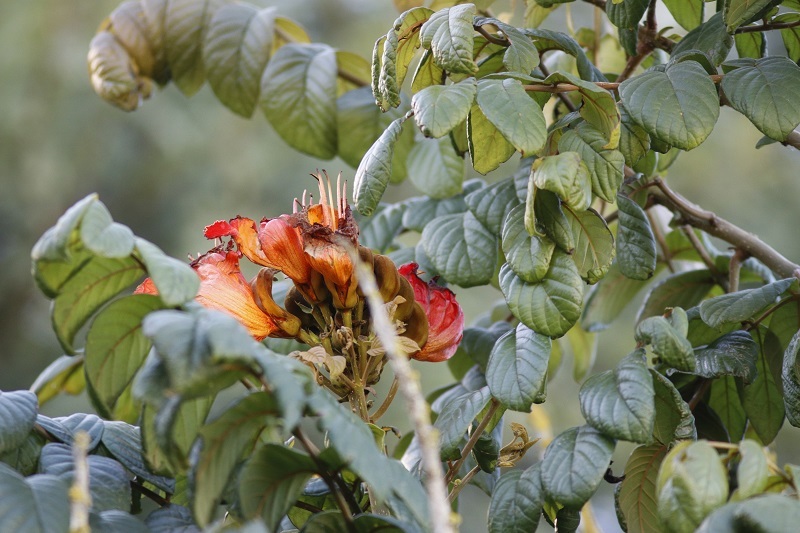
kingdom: Plantae
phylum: Tracheophyta
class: Magnoliopsida
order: Lamiales
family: Bignoniaceae
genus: Spathodea
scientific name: Spathodea campanulata
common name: African tuliptree
